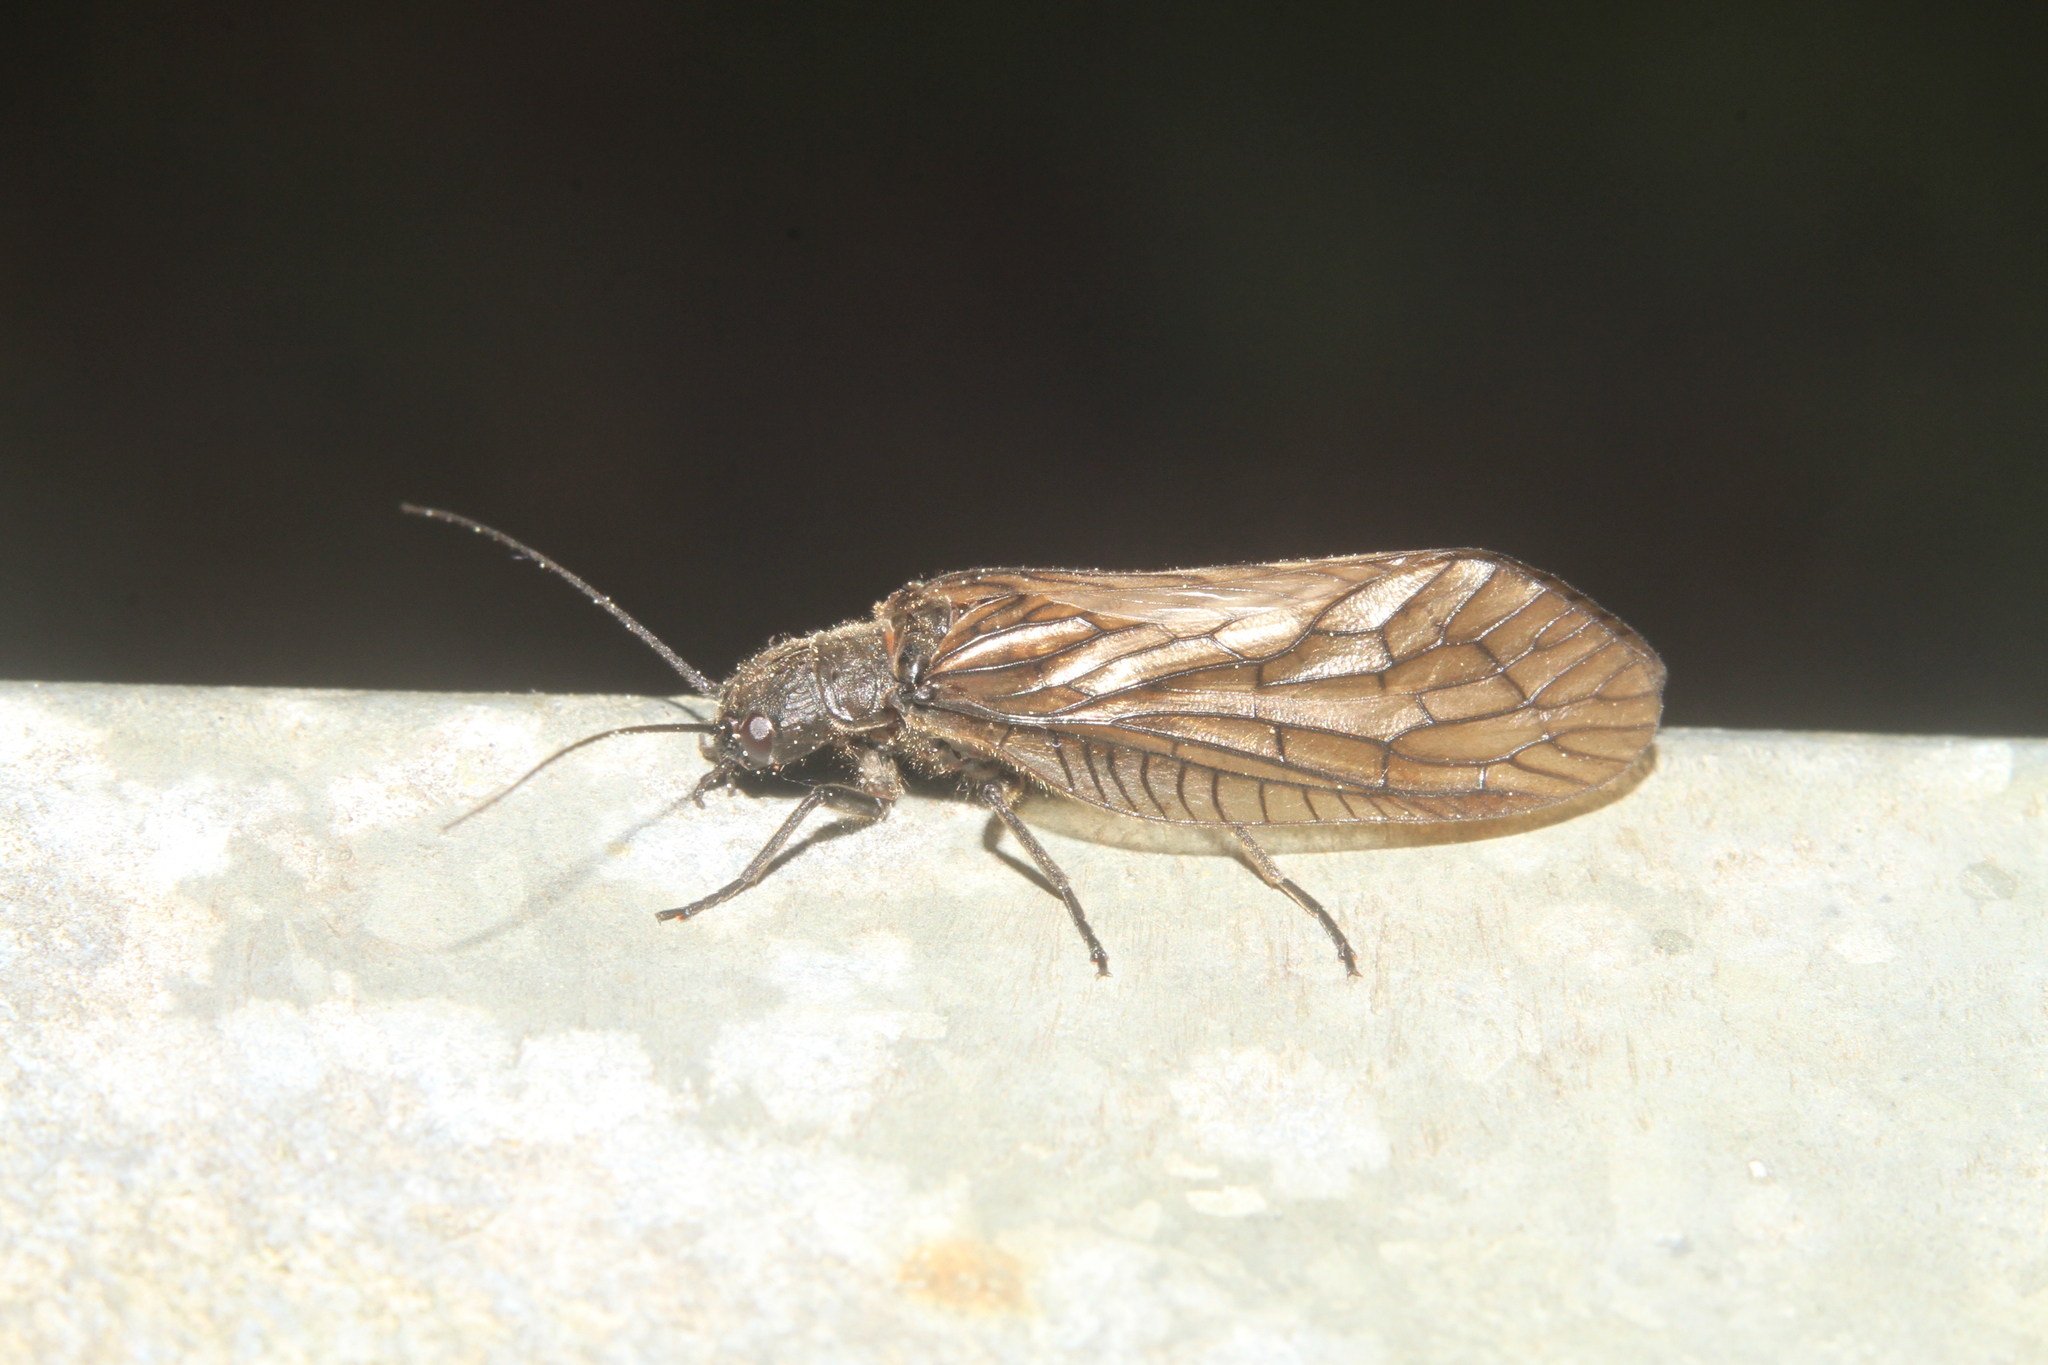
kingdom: Animalia
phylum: Arthropoda
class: Insecta
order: Megaloptera
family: Sialidae
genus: Sialis
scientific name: Sialis
